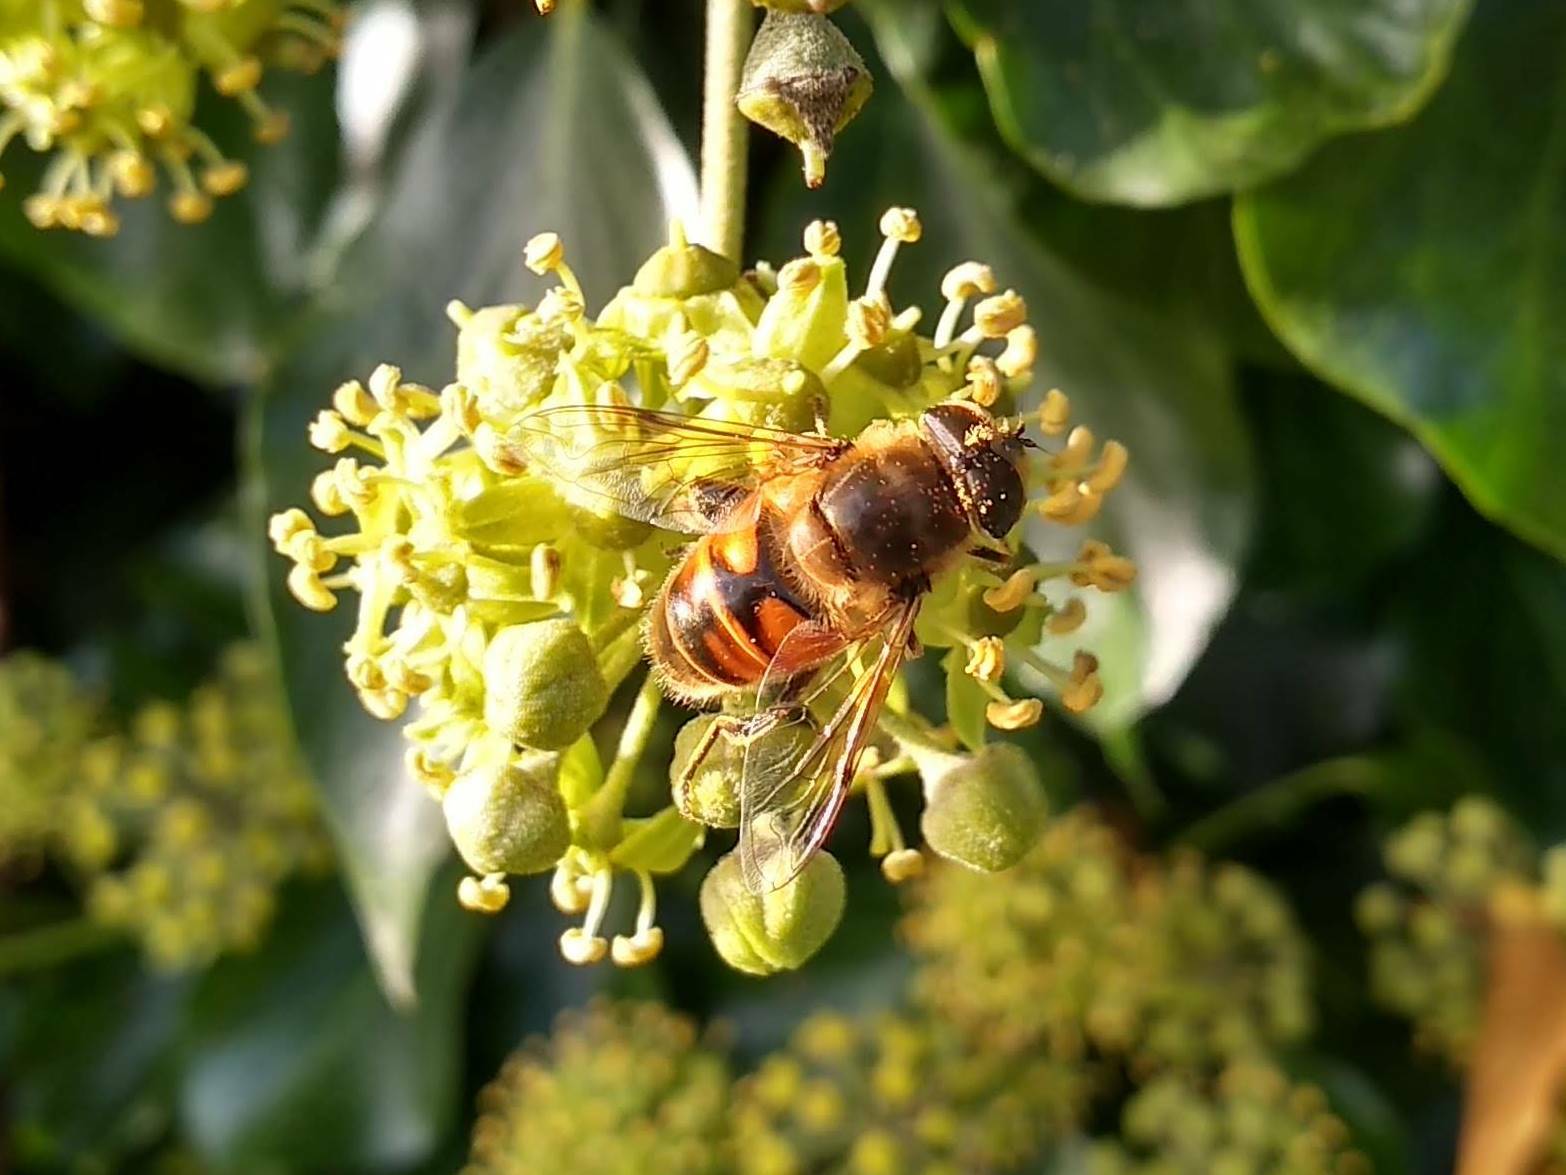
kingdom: Animalia
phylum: Arthropoda
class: Insecta
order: Diptera
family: Syrphidae
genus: Eristalis
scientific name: Eristalis tenax
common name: Drone fly
